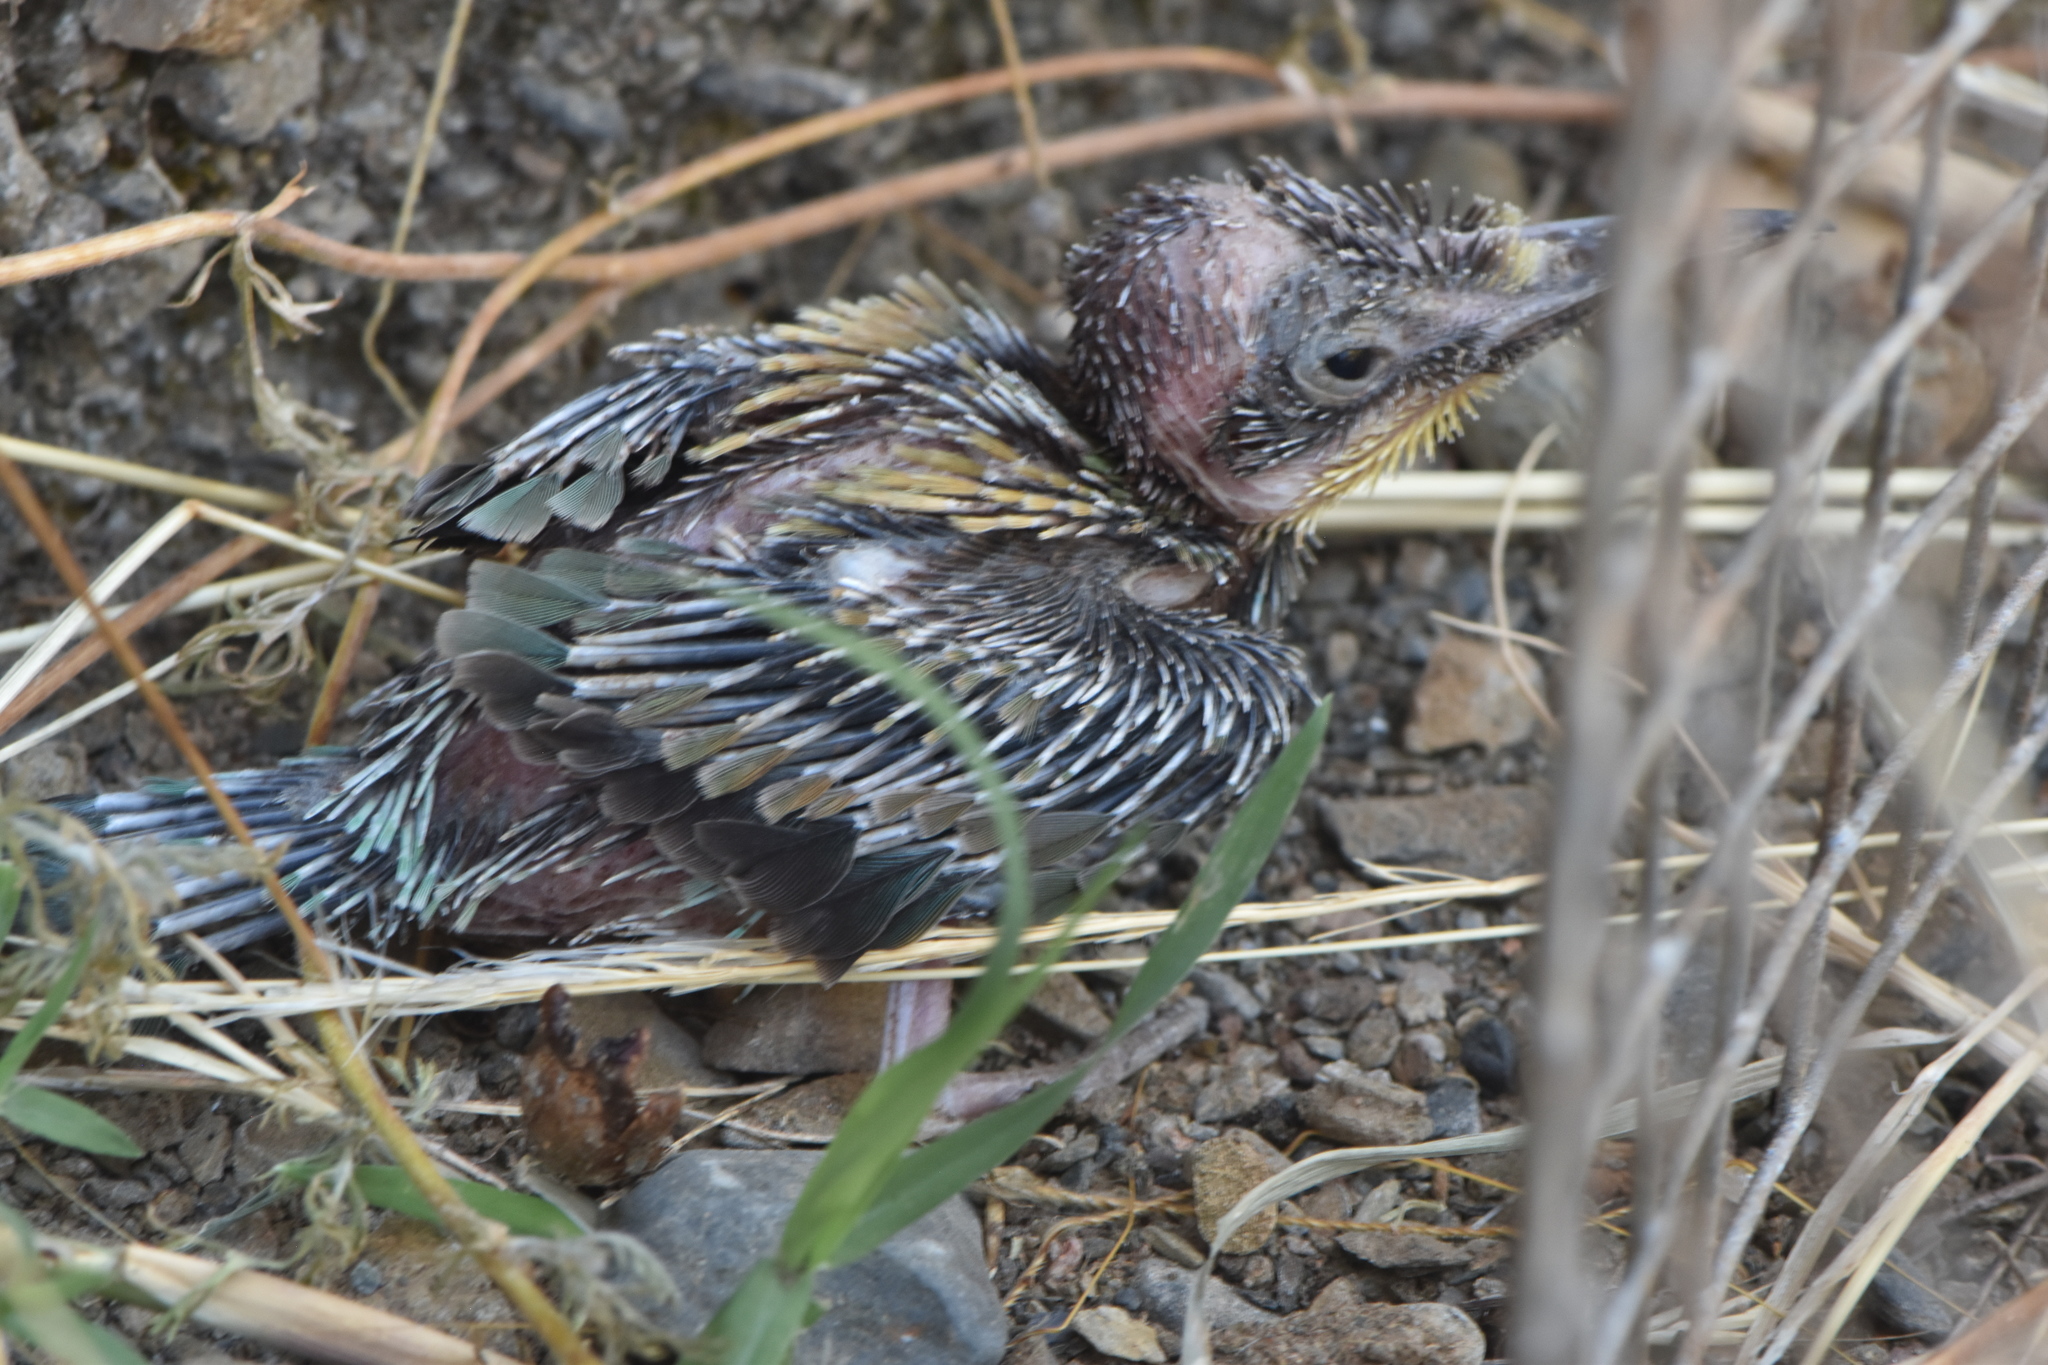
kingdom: Animalia
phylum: Chordata
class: Aves
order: Coraciiformes
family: Meropidae
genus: Merops
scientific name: Merops apiaster
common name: European bee-eater
